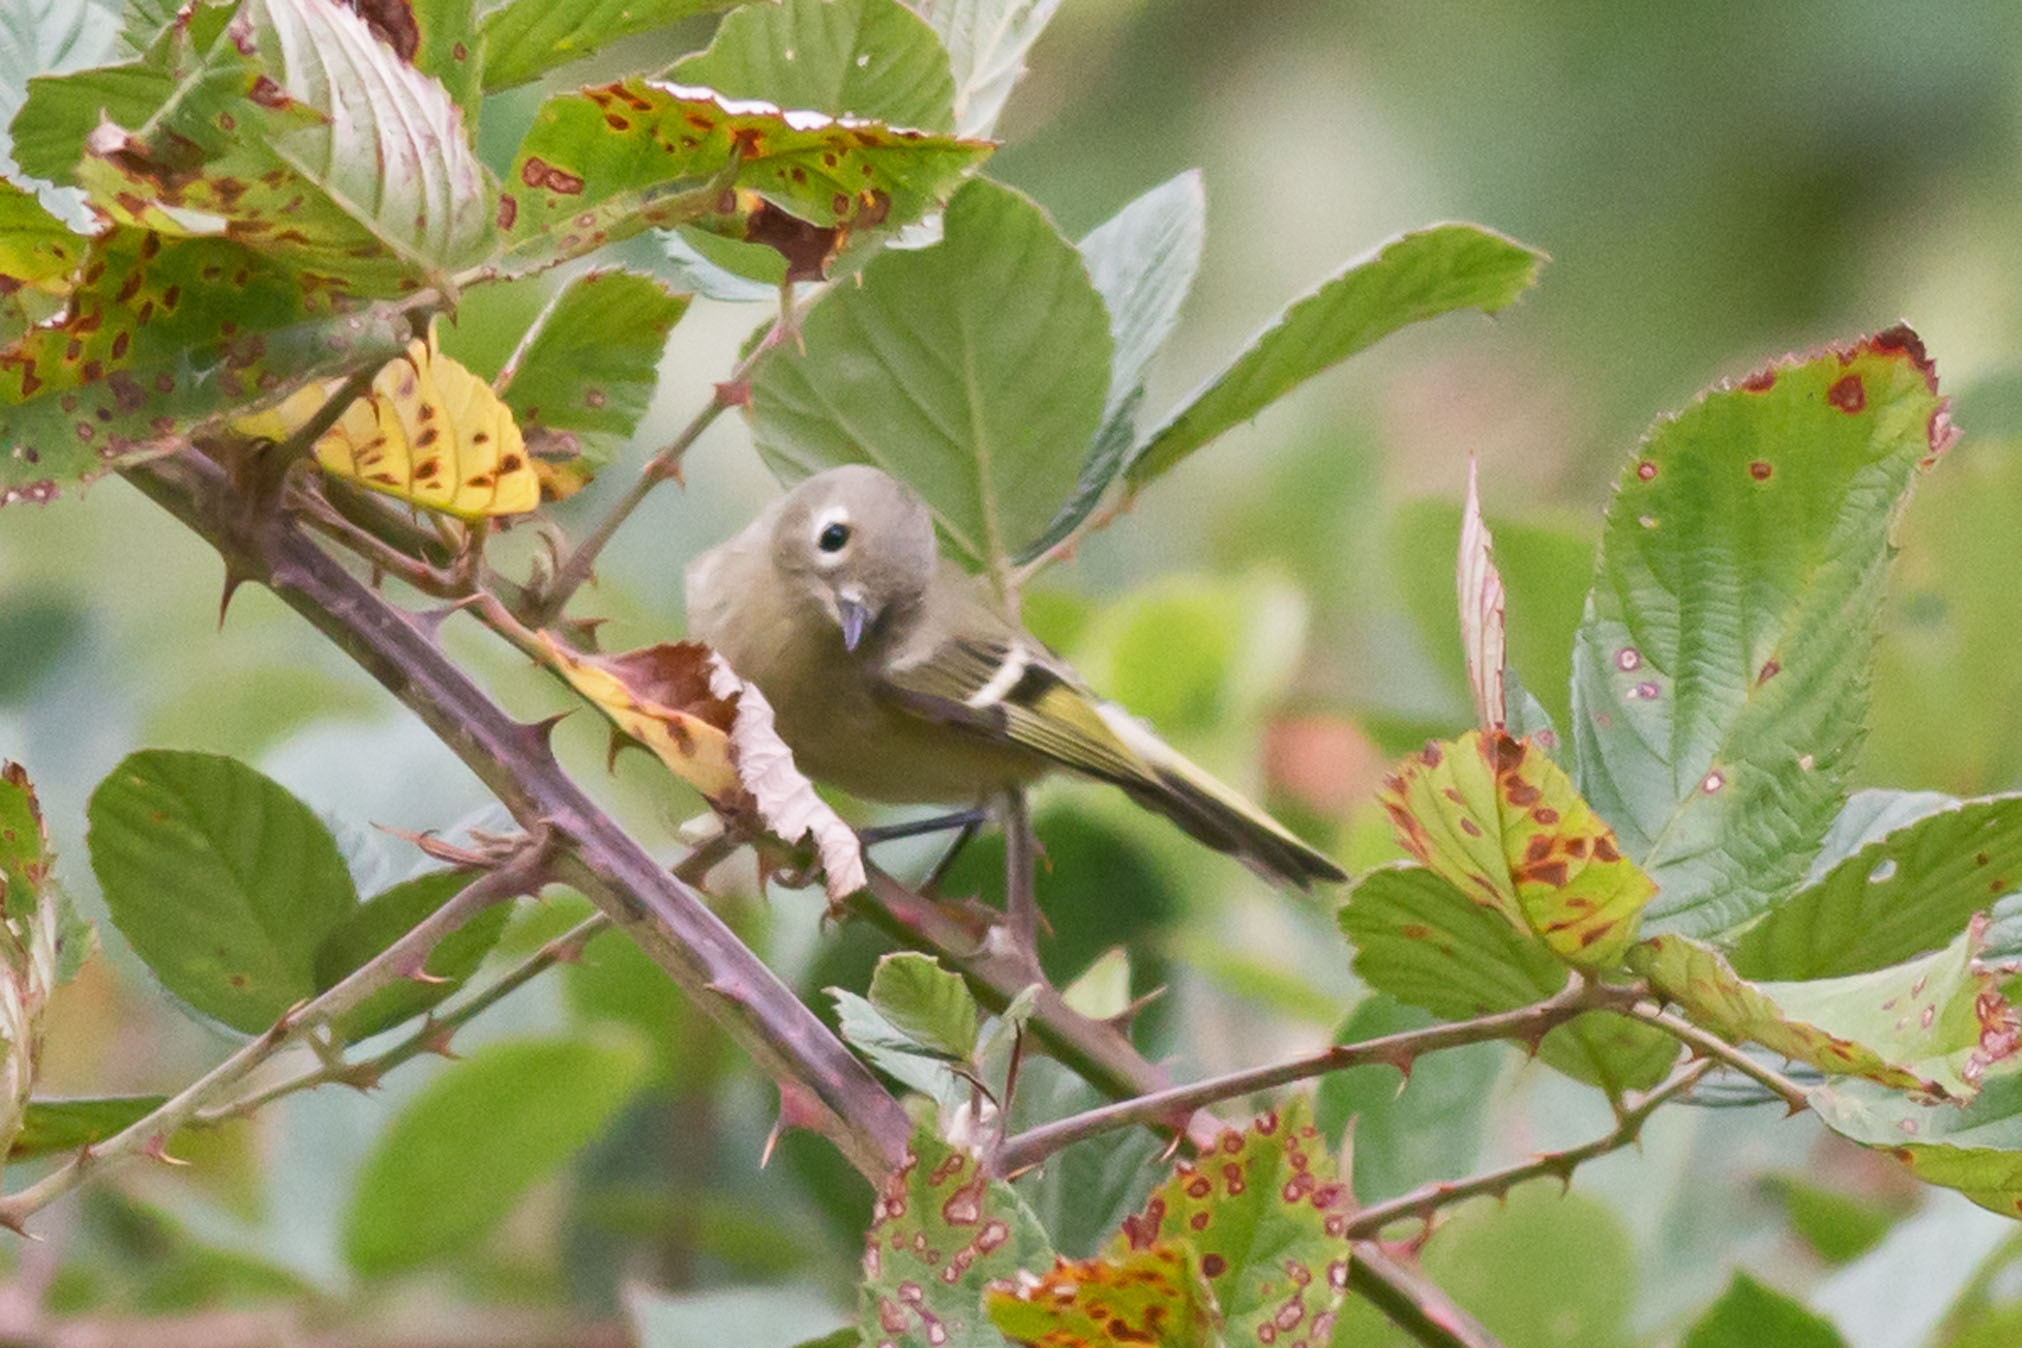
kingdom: Animalia
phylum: Chordata
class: Aves
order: Passeriformes
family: Regulidae
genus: Regulus
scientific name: Regulus calendula
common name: Ruby-crowned kinglet
